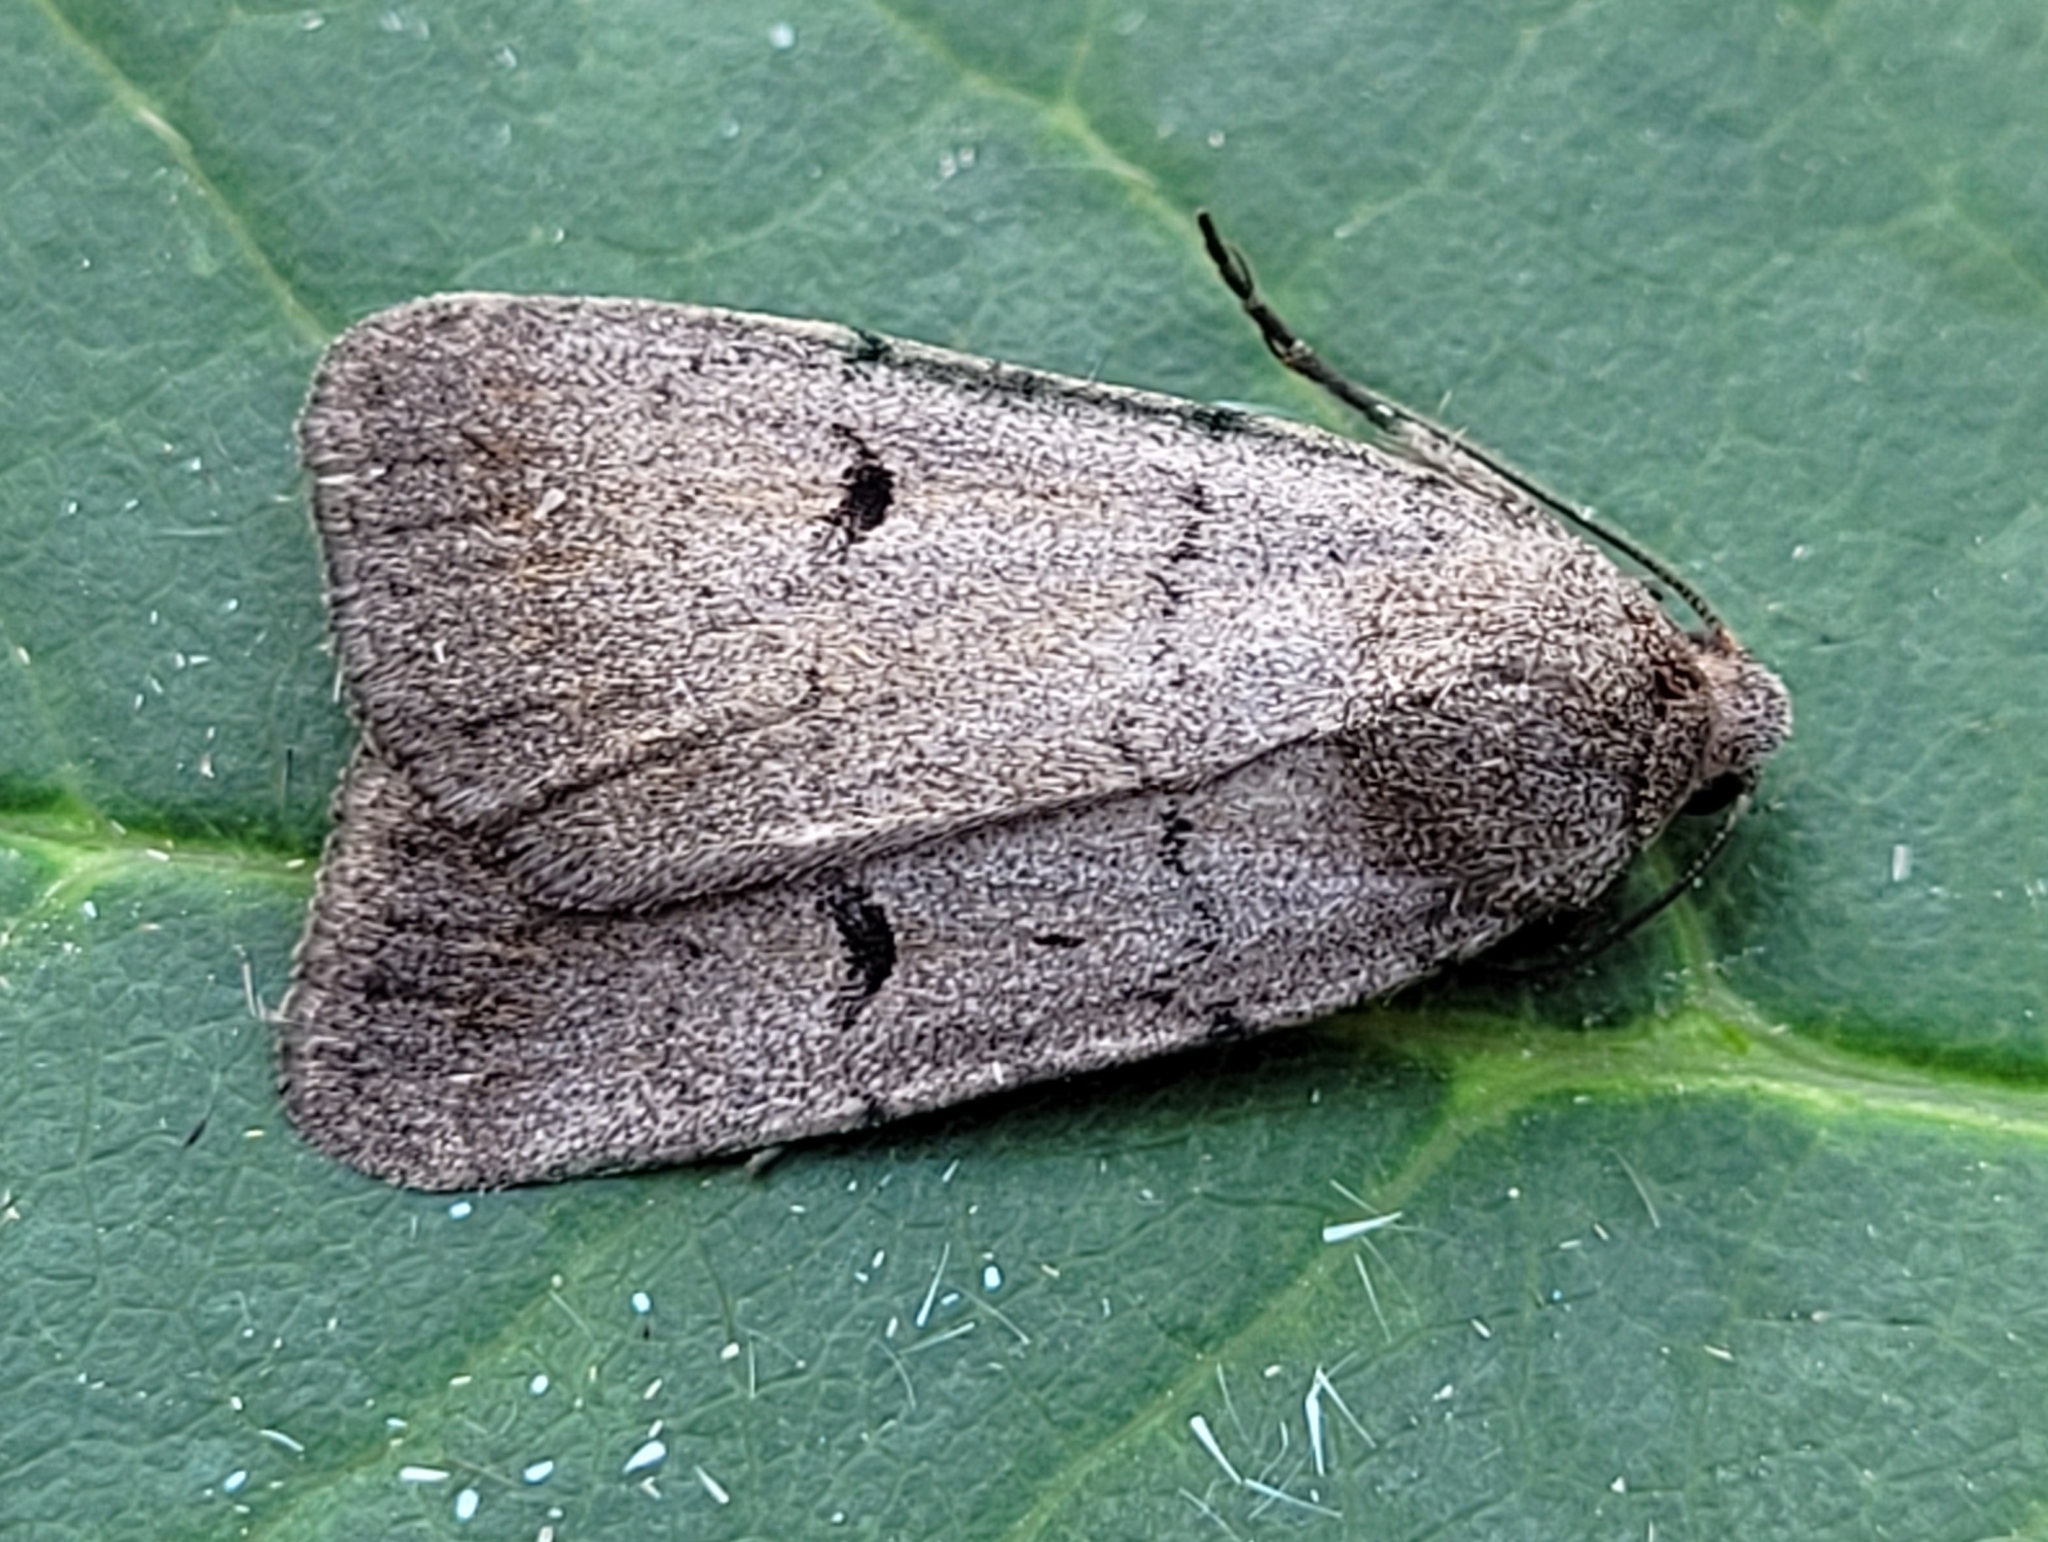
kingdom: Animalia
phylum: Arthropoda
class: Insecta
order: Lepidoptera
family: Noctuidae
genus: Caradrina
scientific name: Caradrina meralis
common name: Sand quaker
